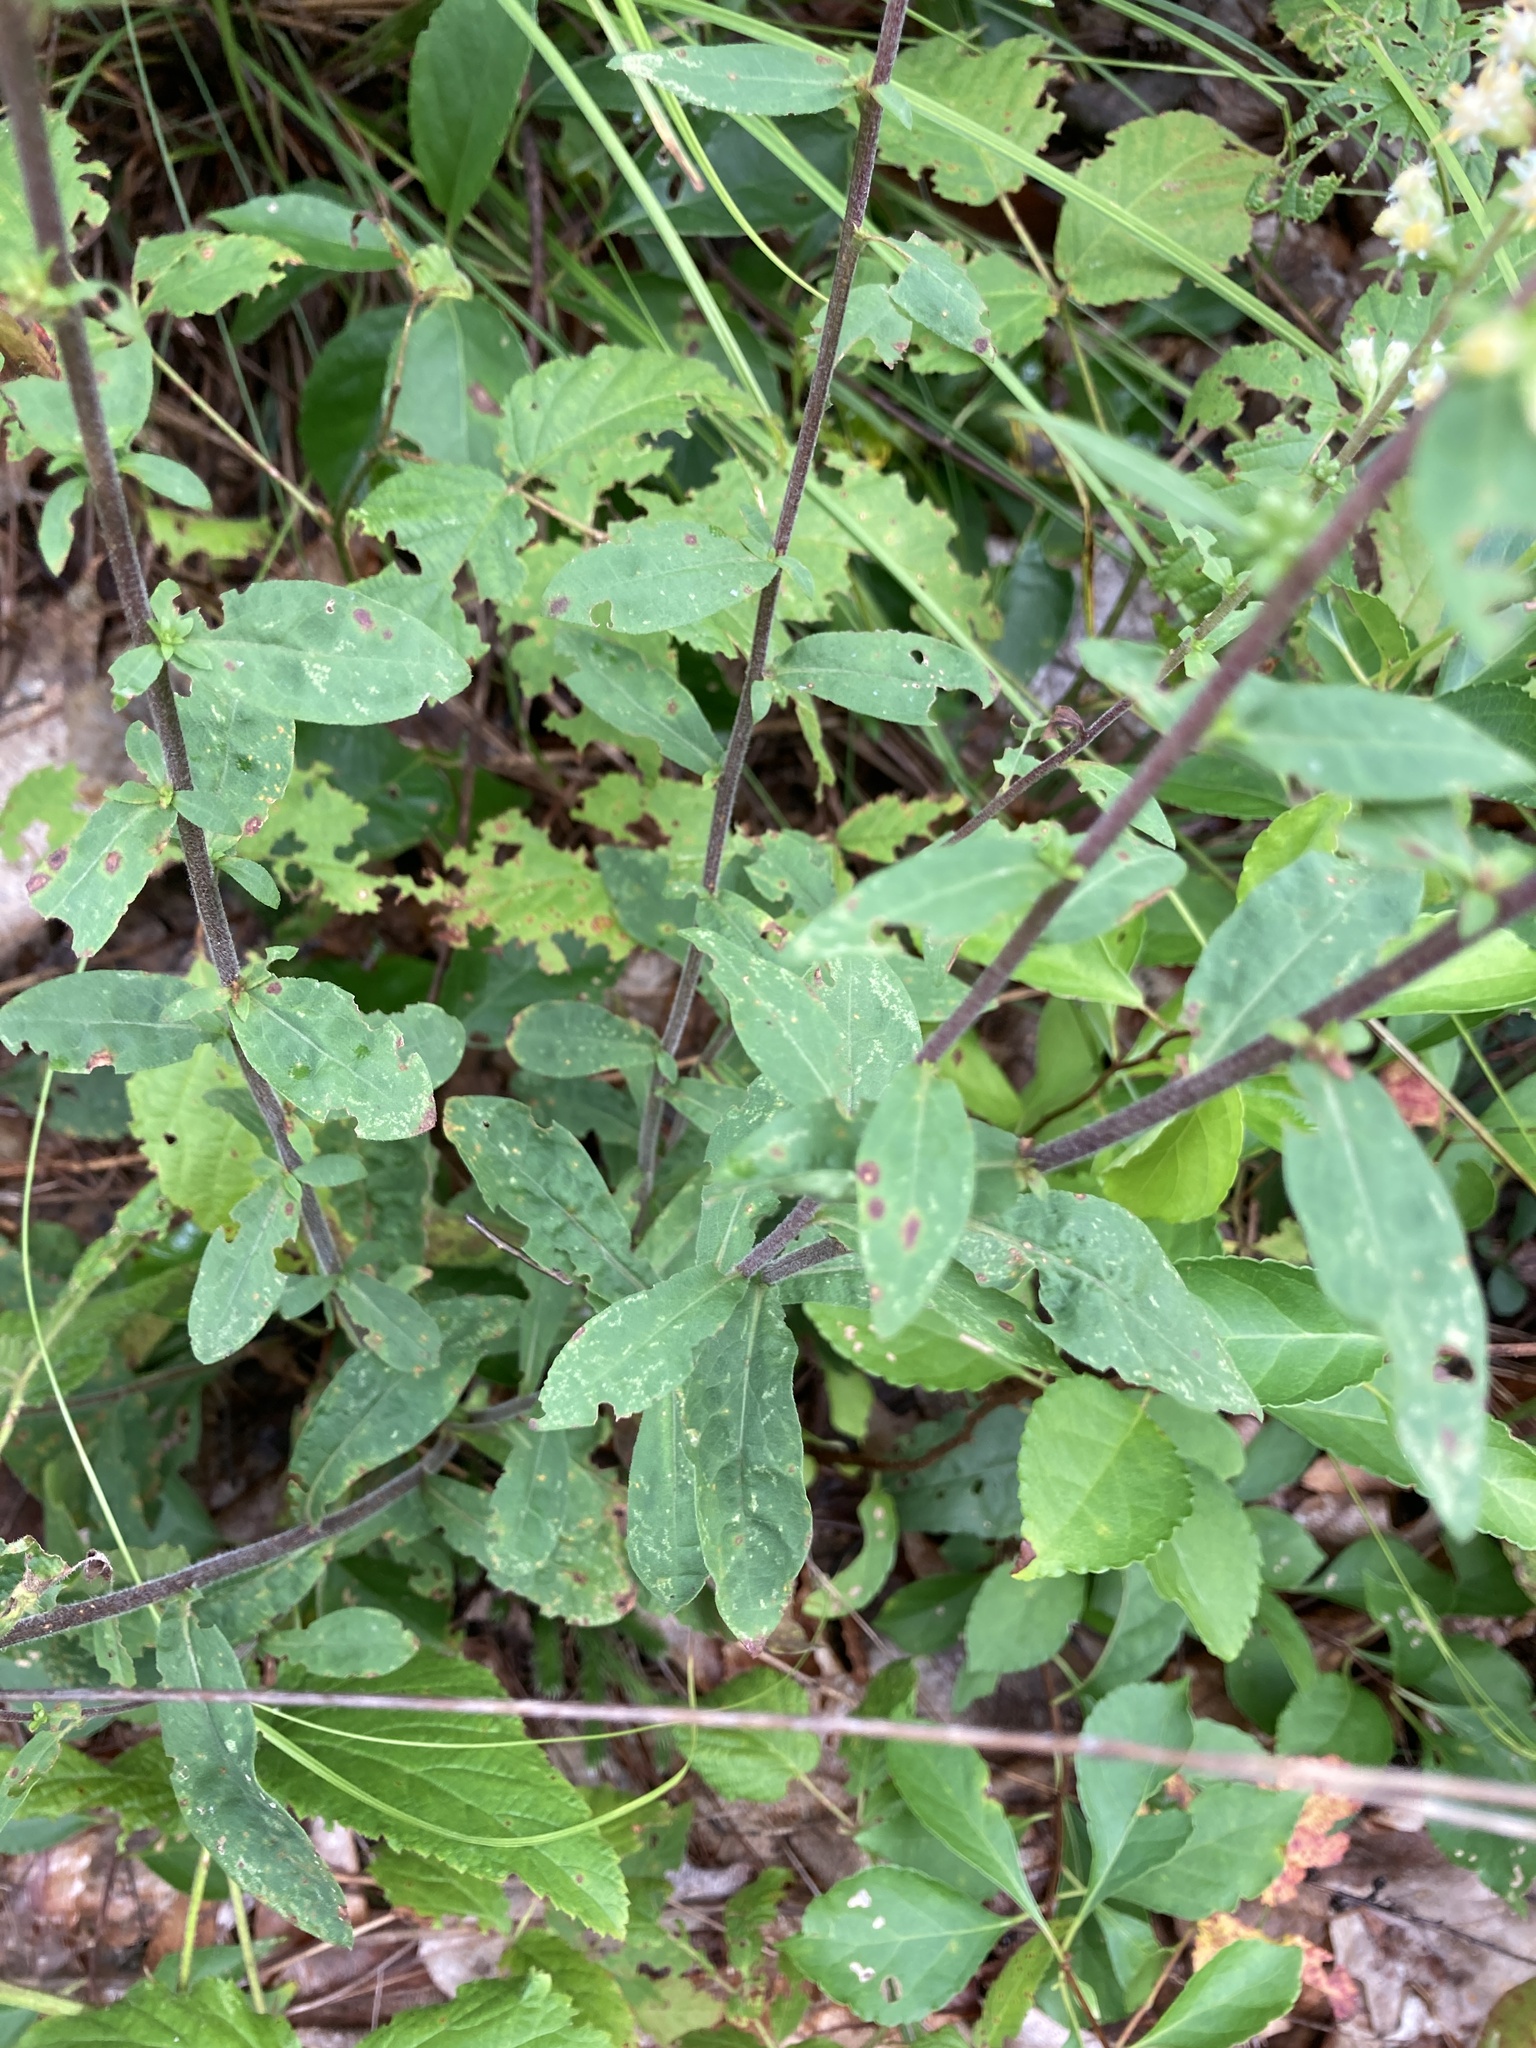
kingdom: Plantae
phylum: Tracheophyta
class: Magnoliopsida
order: Asterales
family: Asteraceae
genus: Solidago
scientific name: Solidago bicolor
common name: Silverrod
